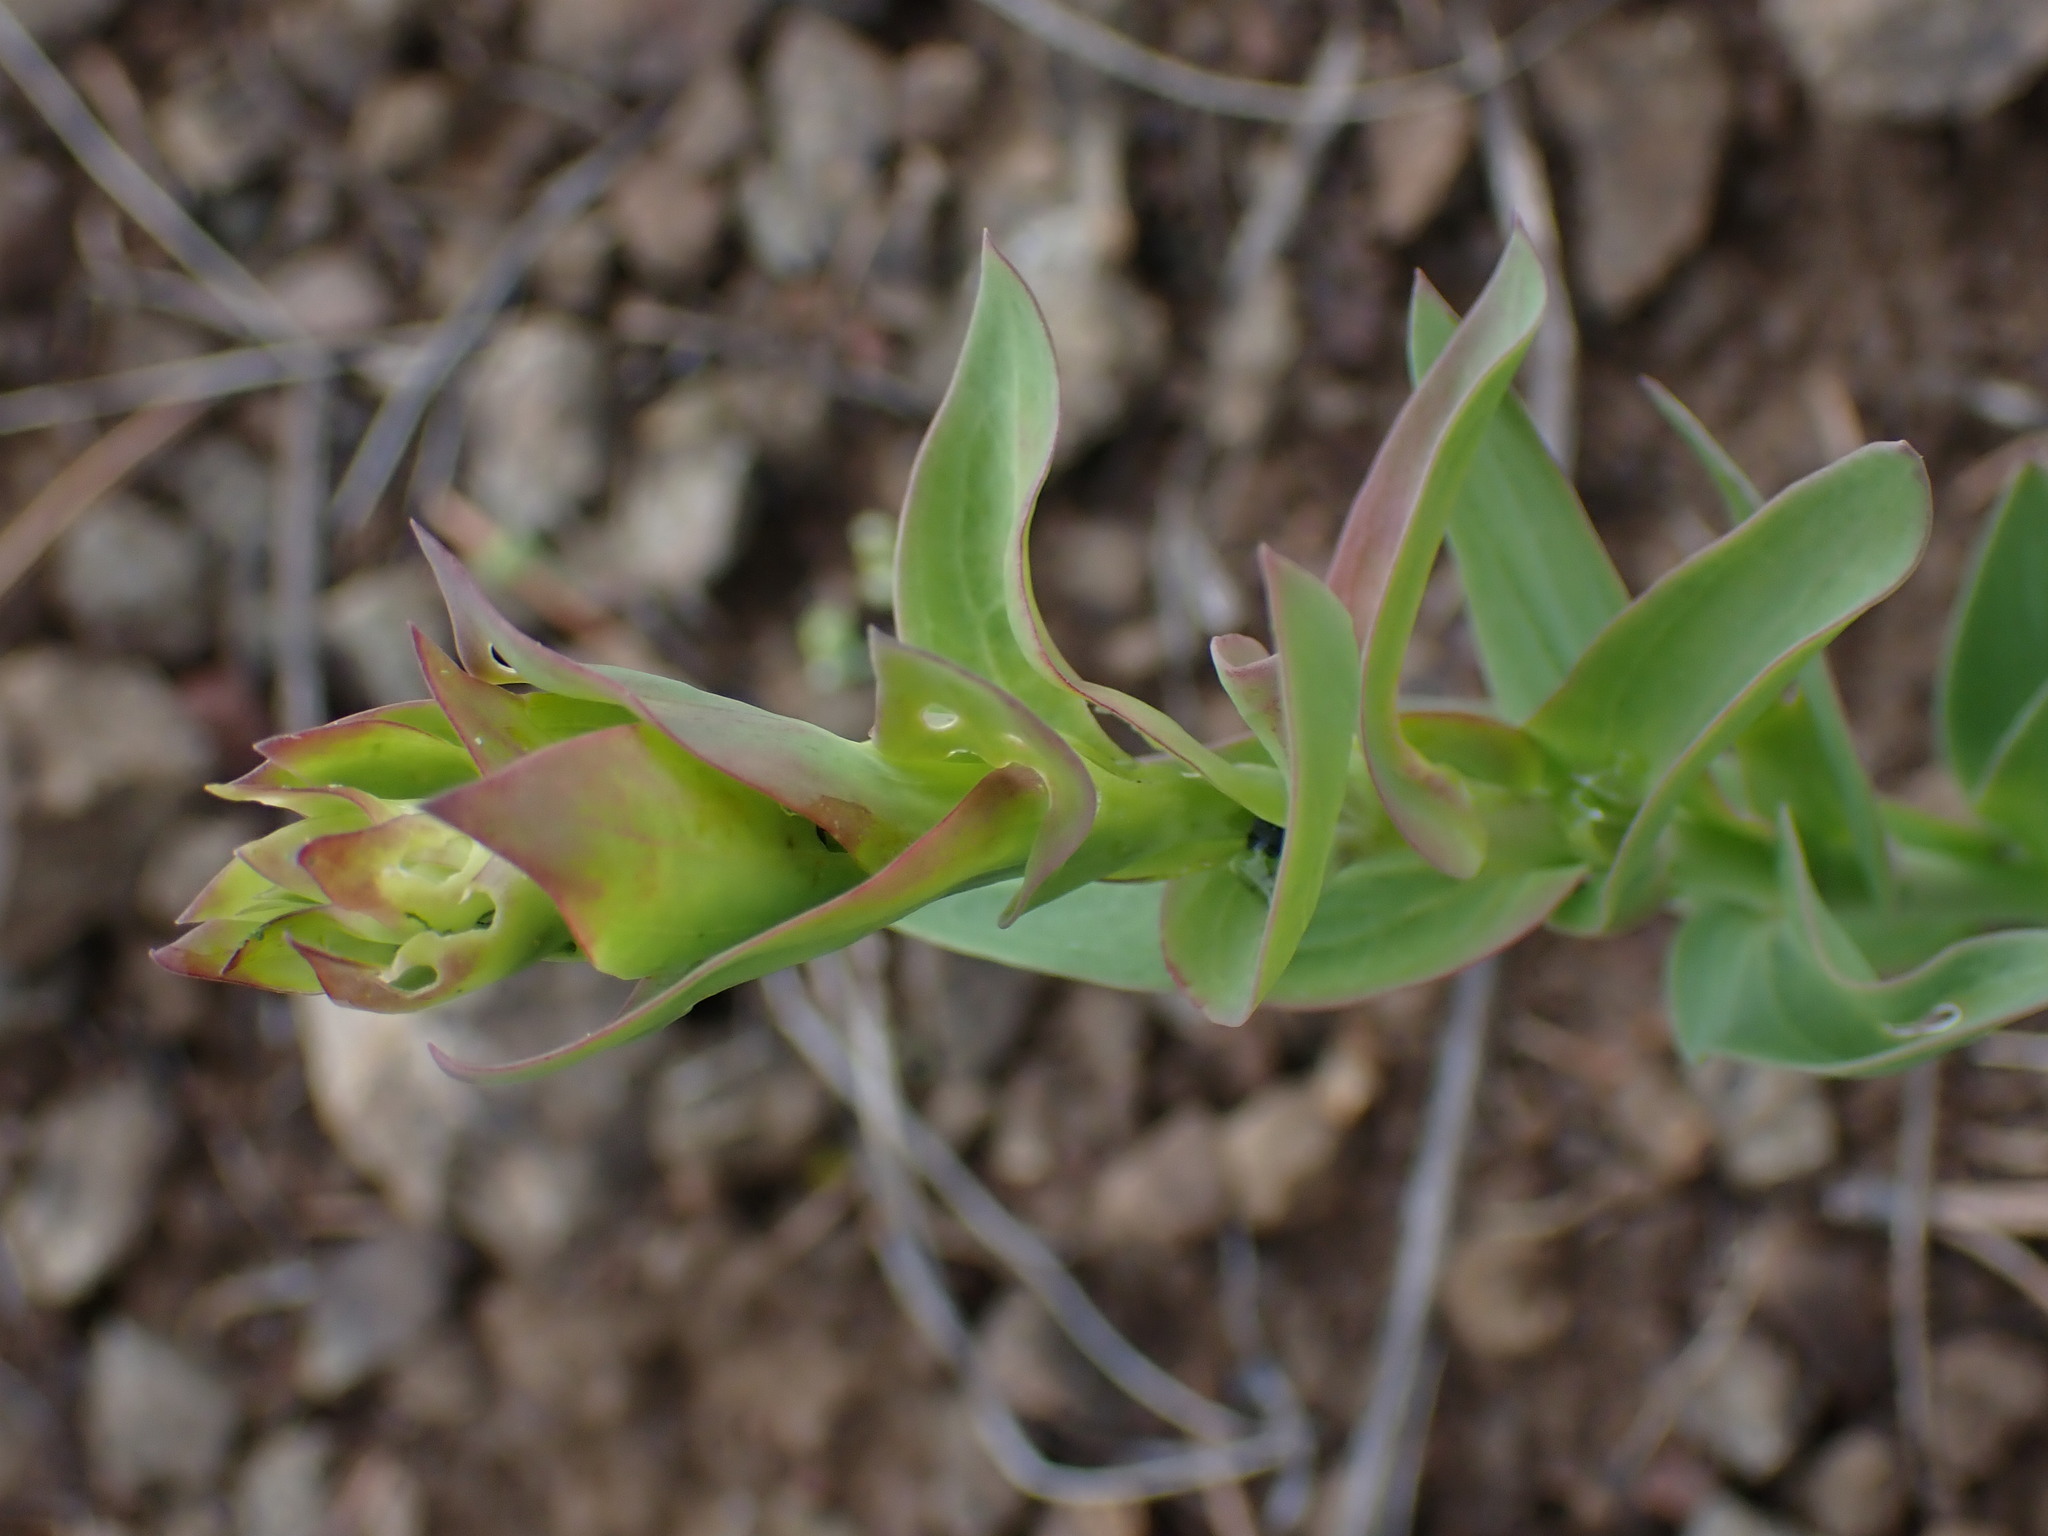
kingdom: Plantae
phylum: Tracheophyta
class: Magnoliopsida
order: Lamiales
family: Plantaginaceae
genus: Linaria
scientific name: Linaria dalmatica
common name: Dalmatian toadflax
